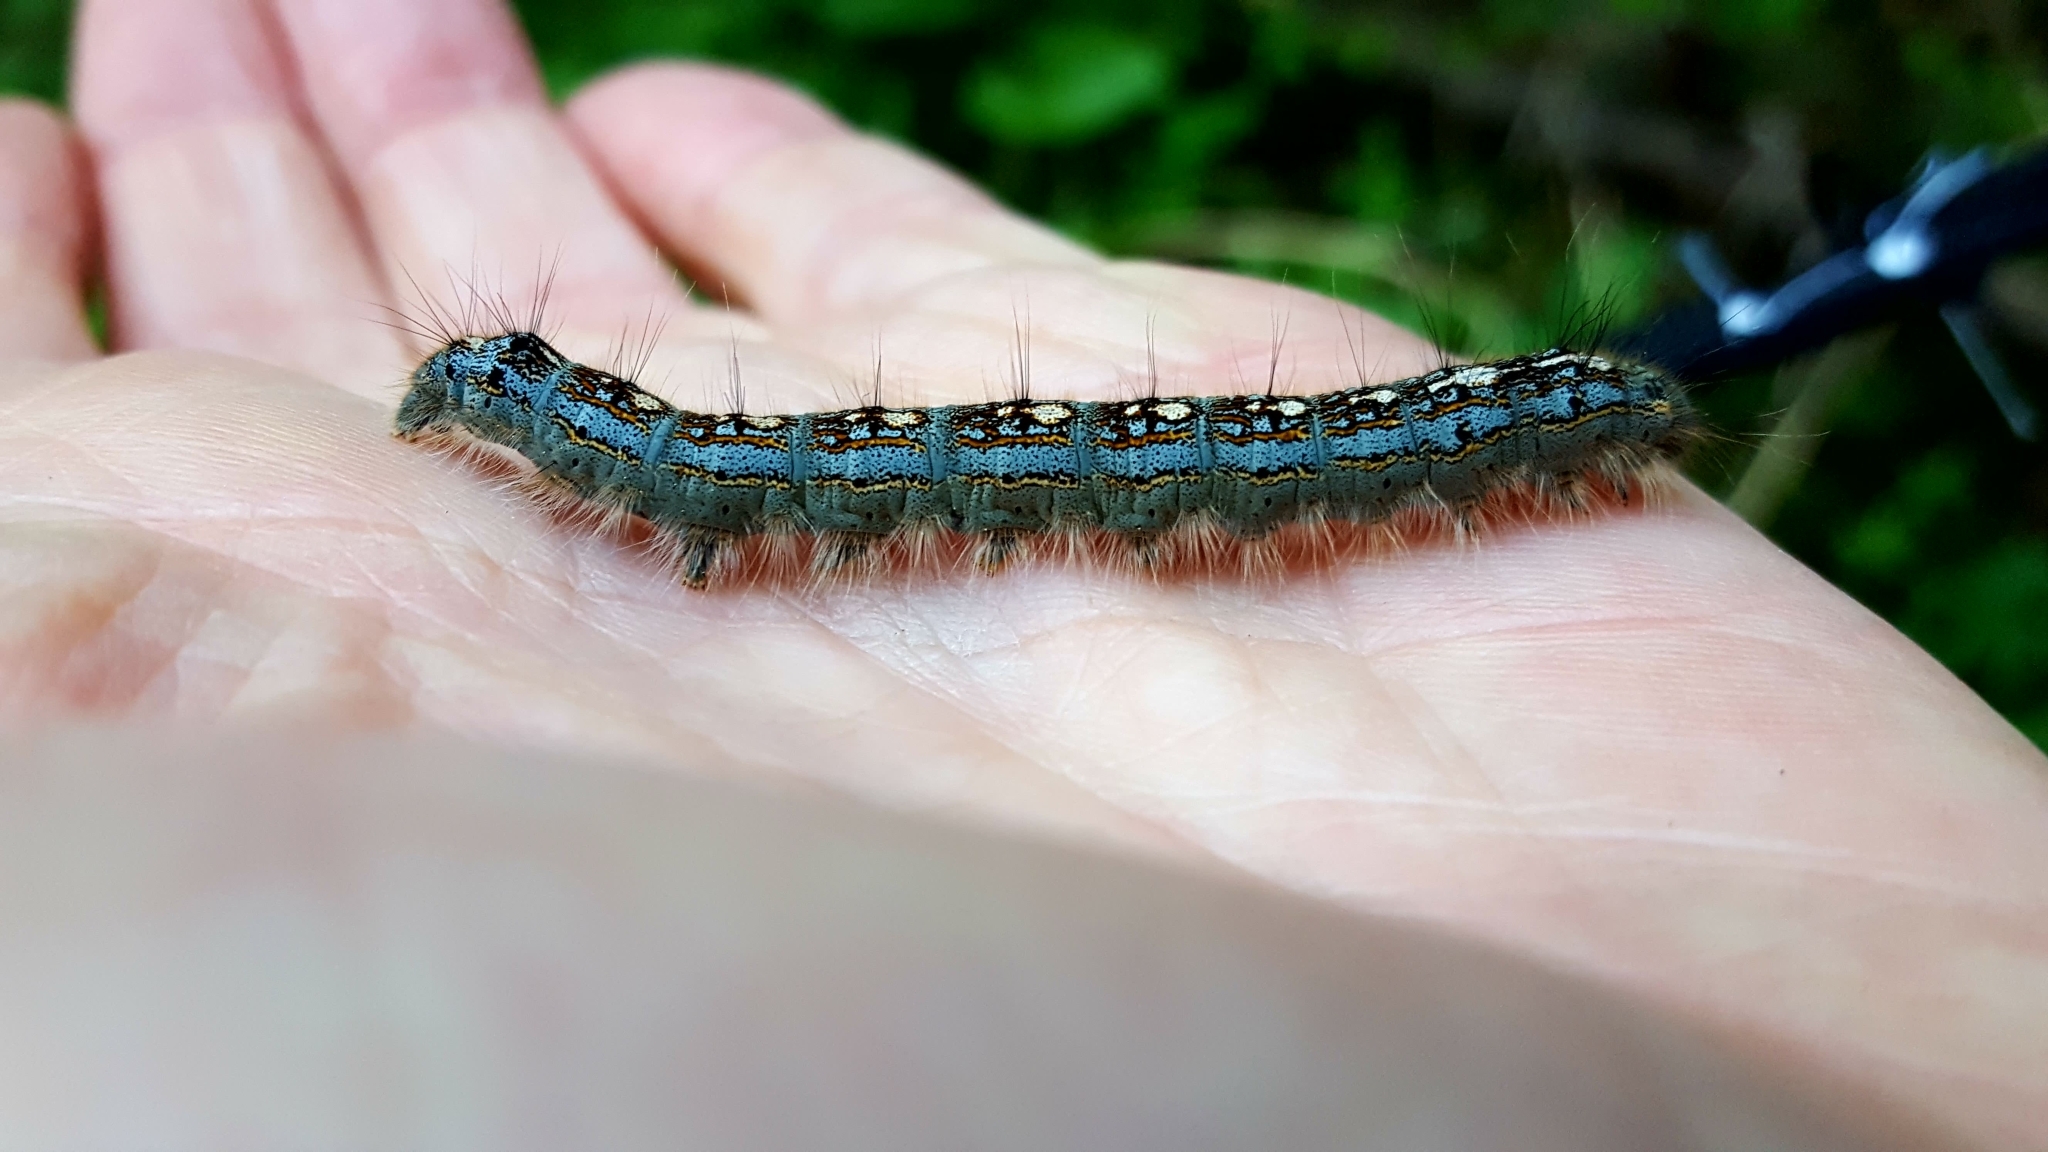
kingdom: Animalia
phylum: Arthropoda
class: Insecta
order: Lepidoptera
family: Lasiocampidae
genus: Malacosoma
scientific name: Malacosoma disstria
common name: Forest tent caterpillar
